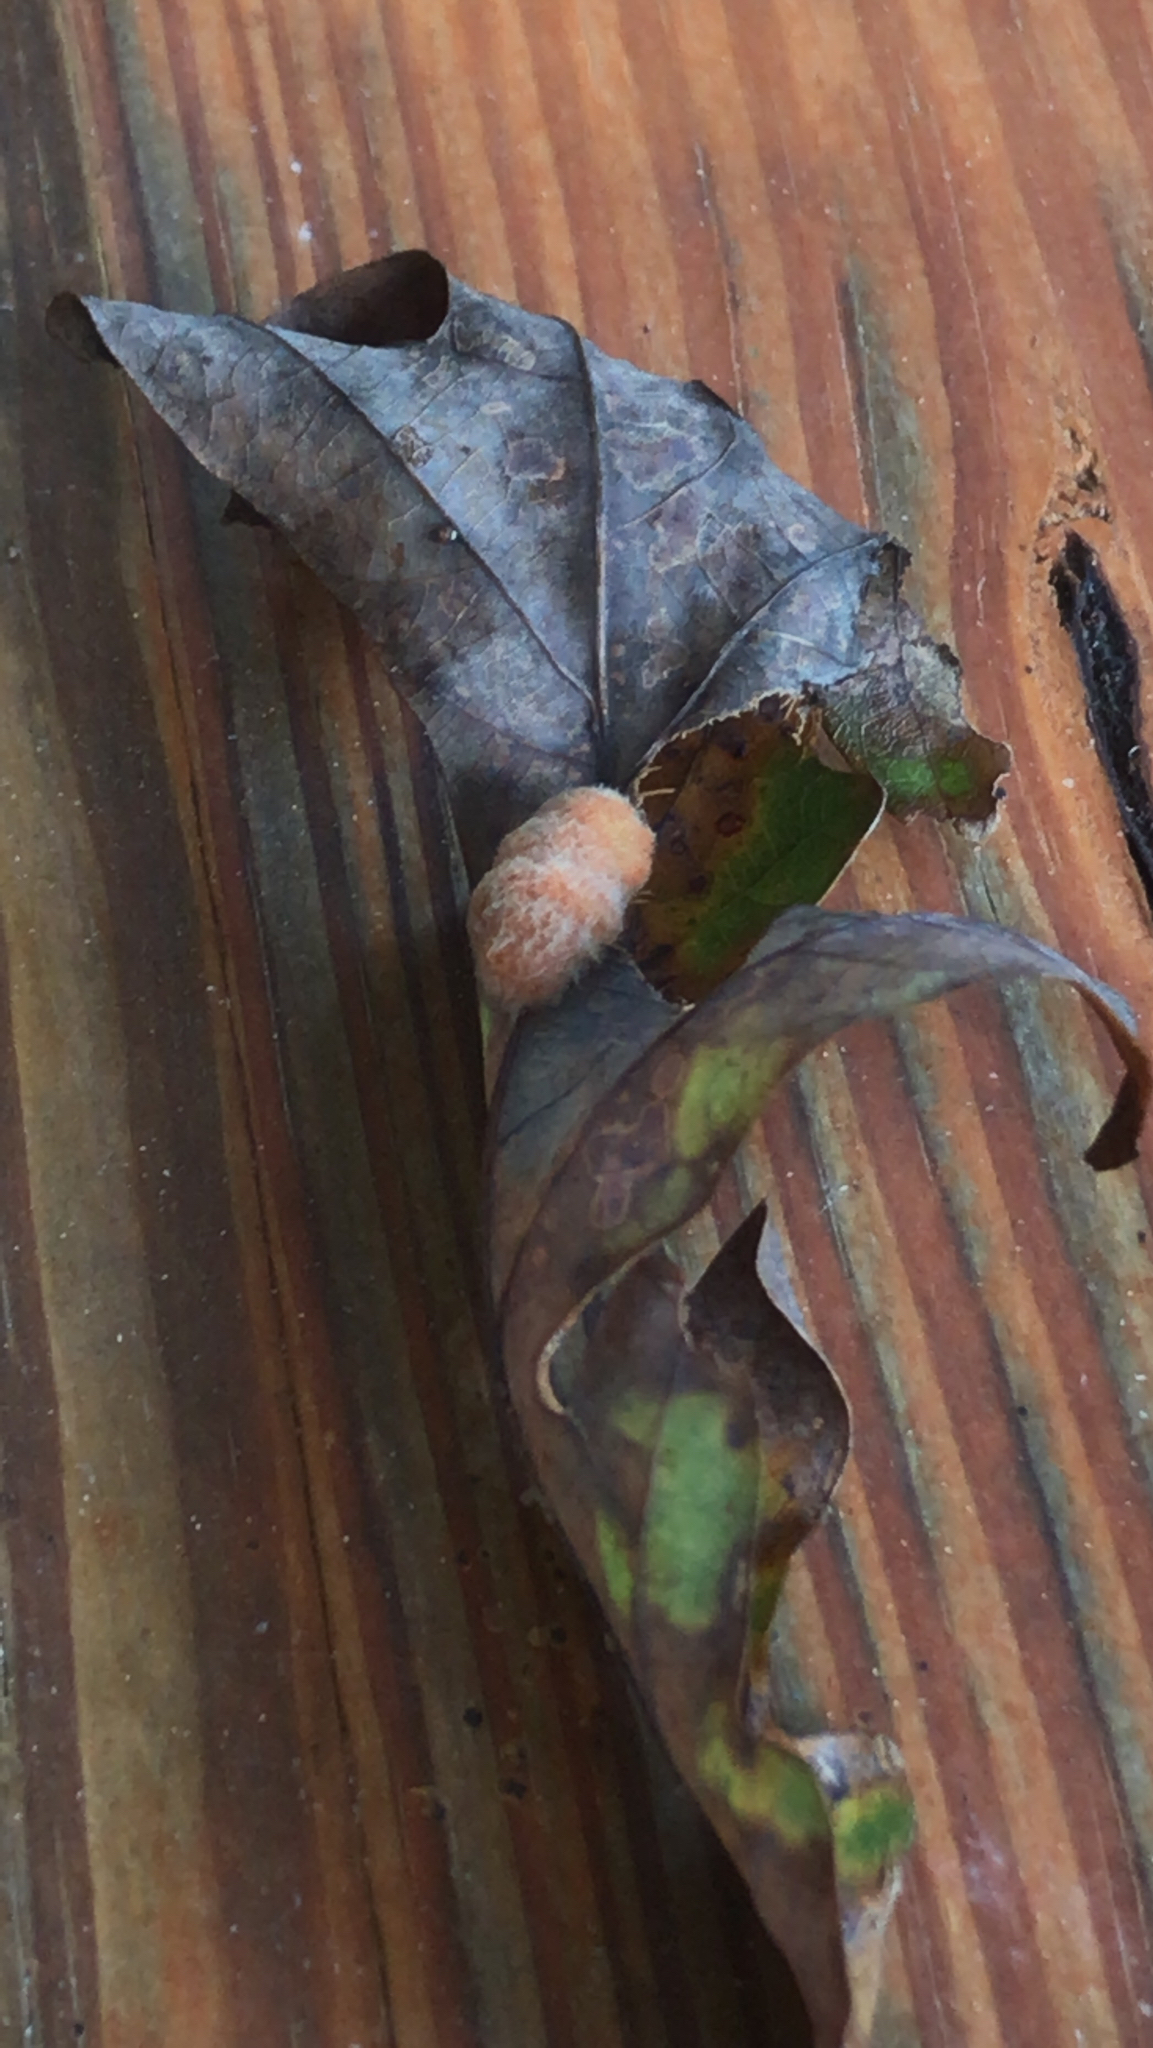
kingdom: Animalia
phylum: Arthropoda
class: Insecta
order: Hymenoptera
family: Cynipidae
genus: Andricus
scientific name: Andricus quercusflocci
